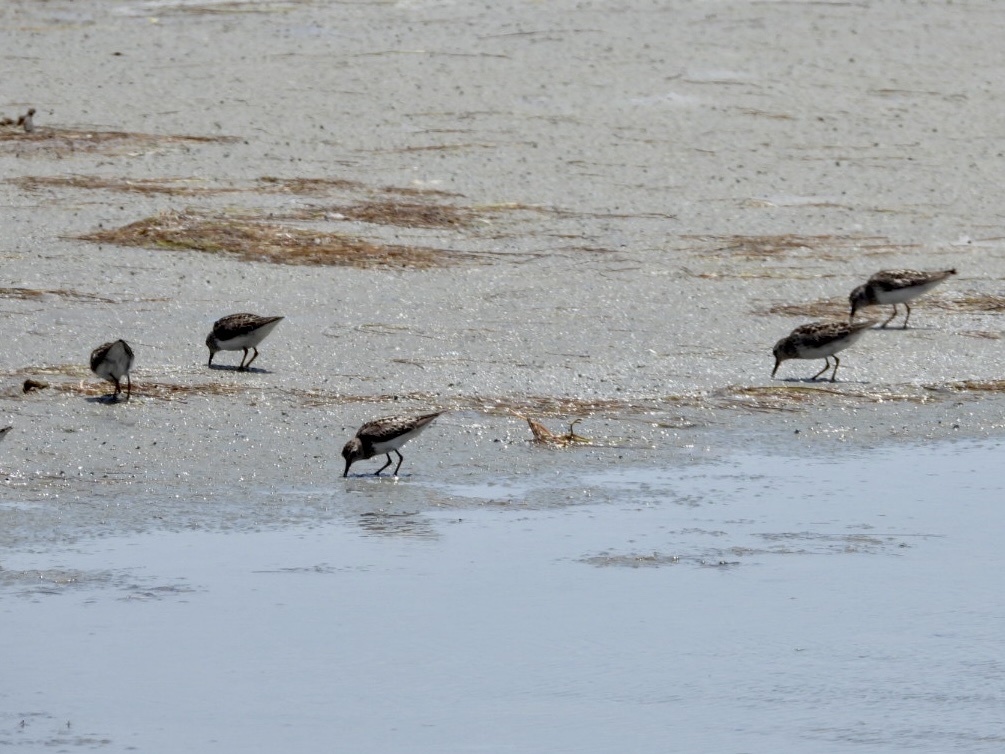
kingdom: Animalia
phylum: Chordata
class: Aves
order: Charadriiformes
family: Scolopacidae
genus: Calidris
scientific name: Calidris minutilla
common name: Least sandpiper
